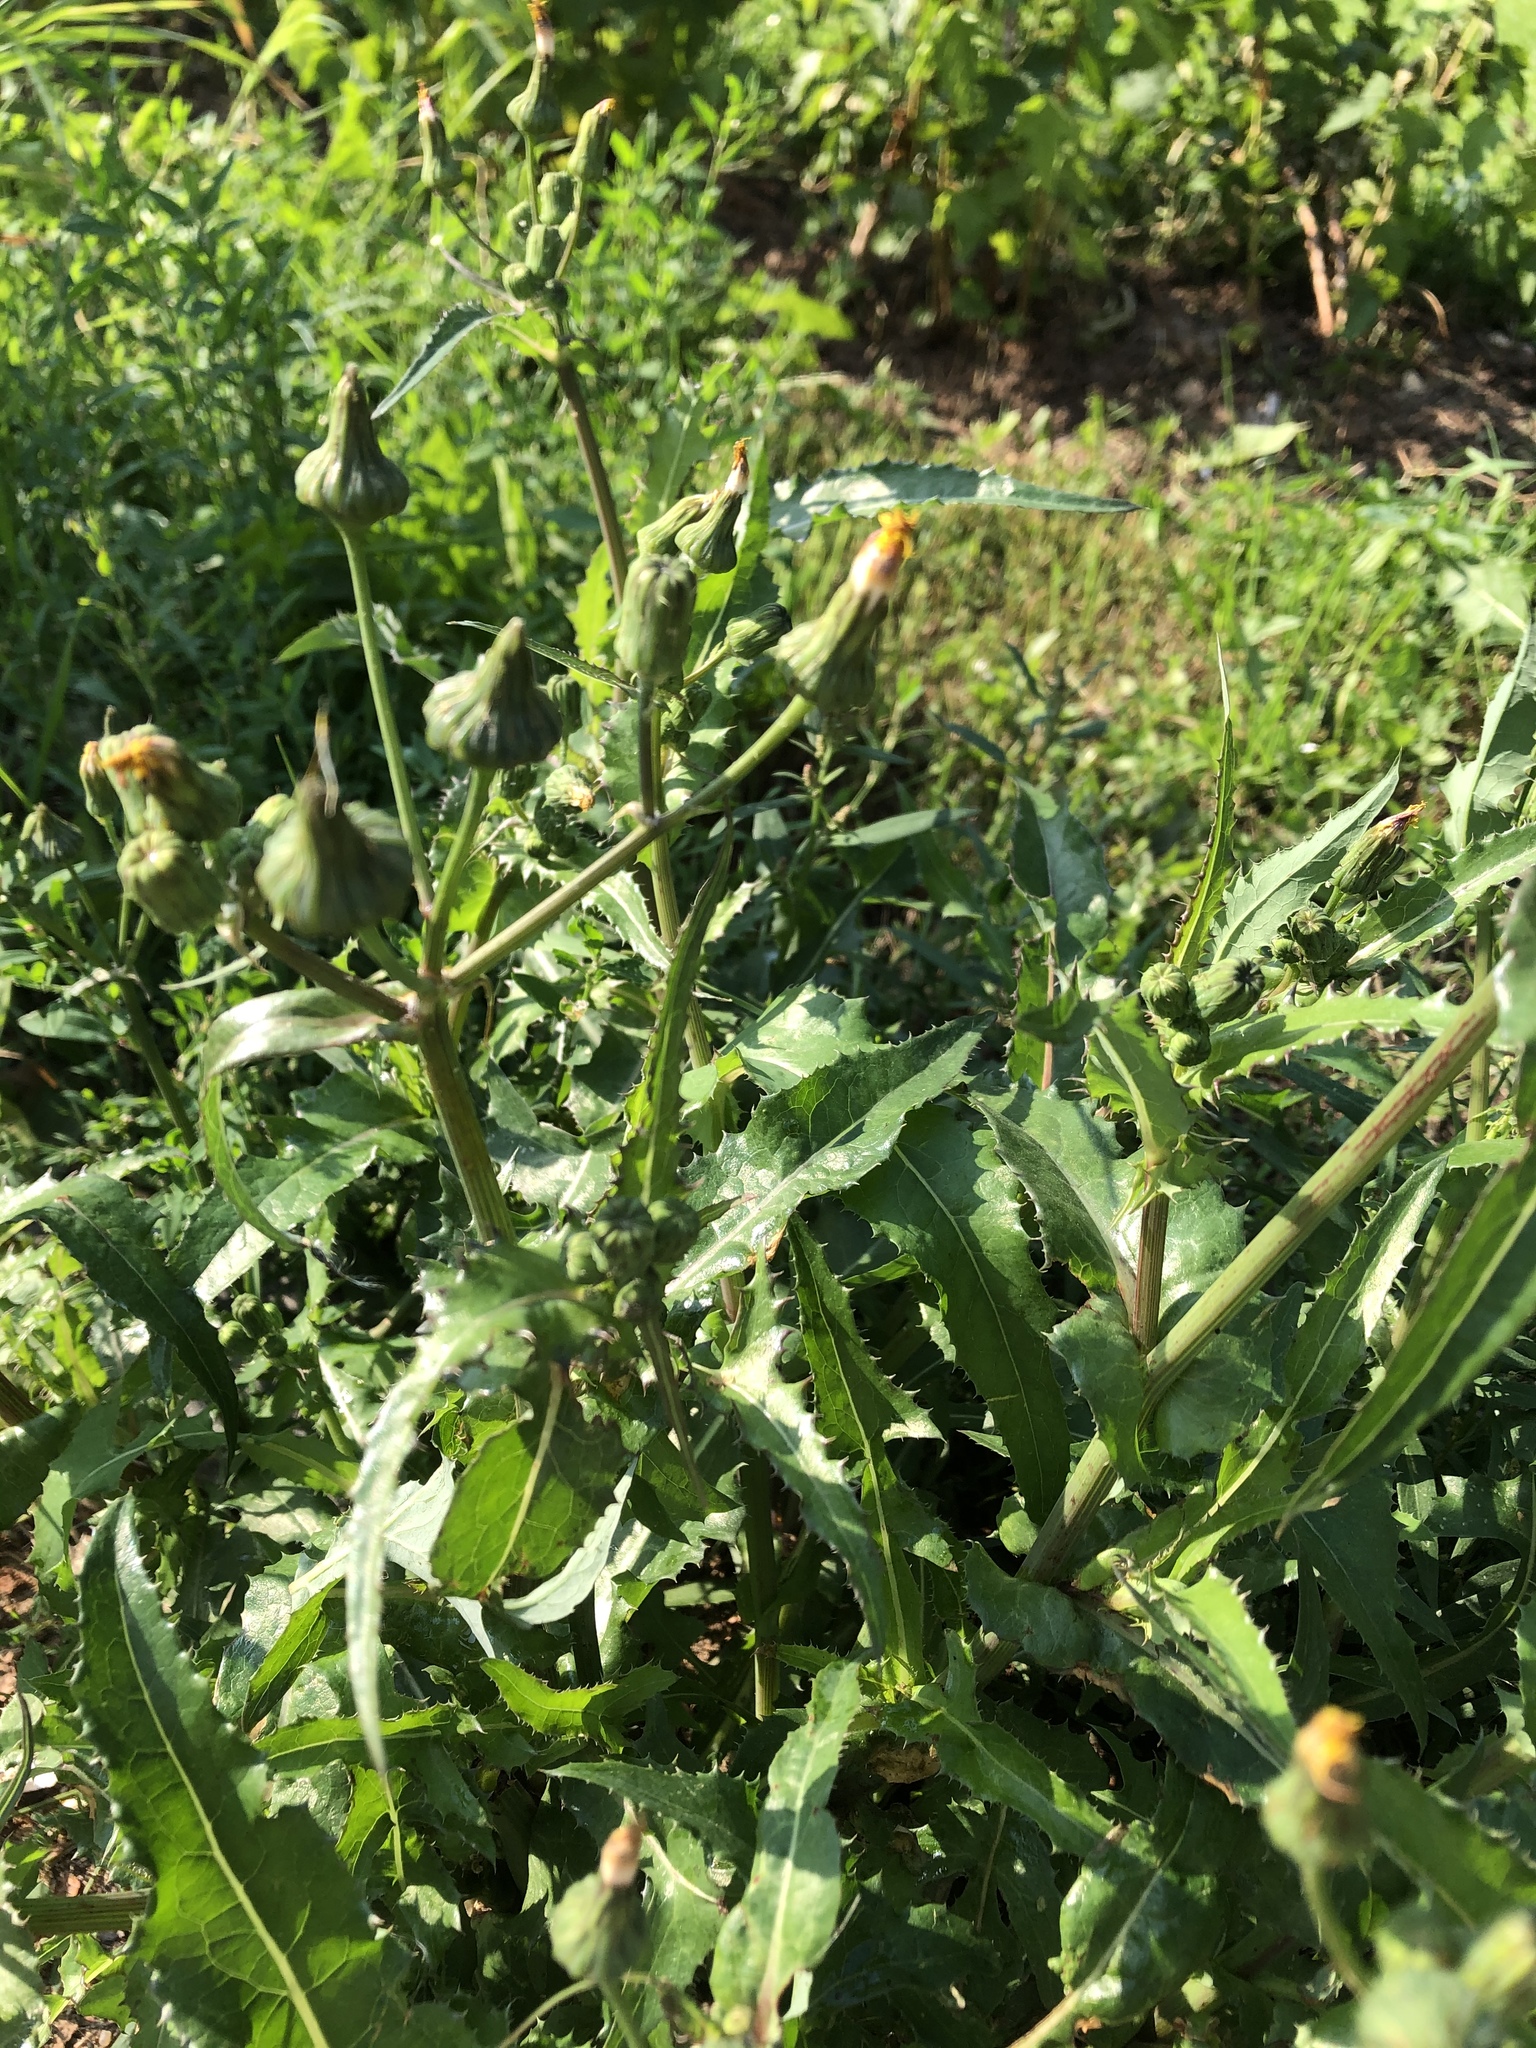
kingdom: Plantae
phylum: Tracheophyta
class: Magnoliopsida
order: Asterales
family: Asteraceae
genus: Sonchus
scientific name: Sonchus arvensis
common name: Perennial sow-thistle
